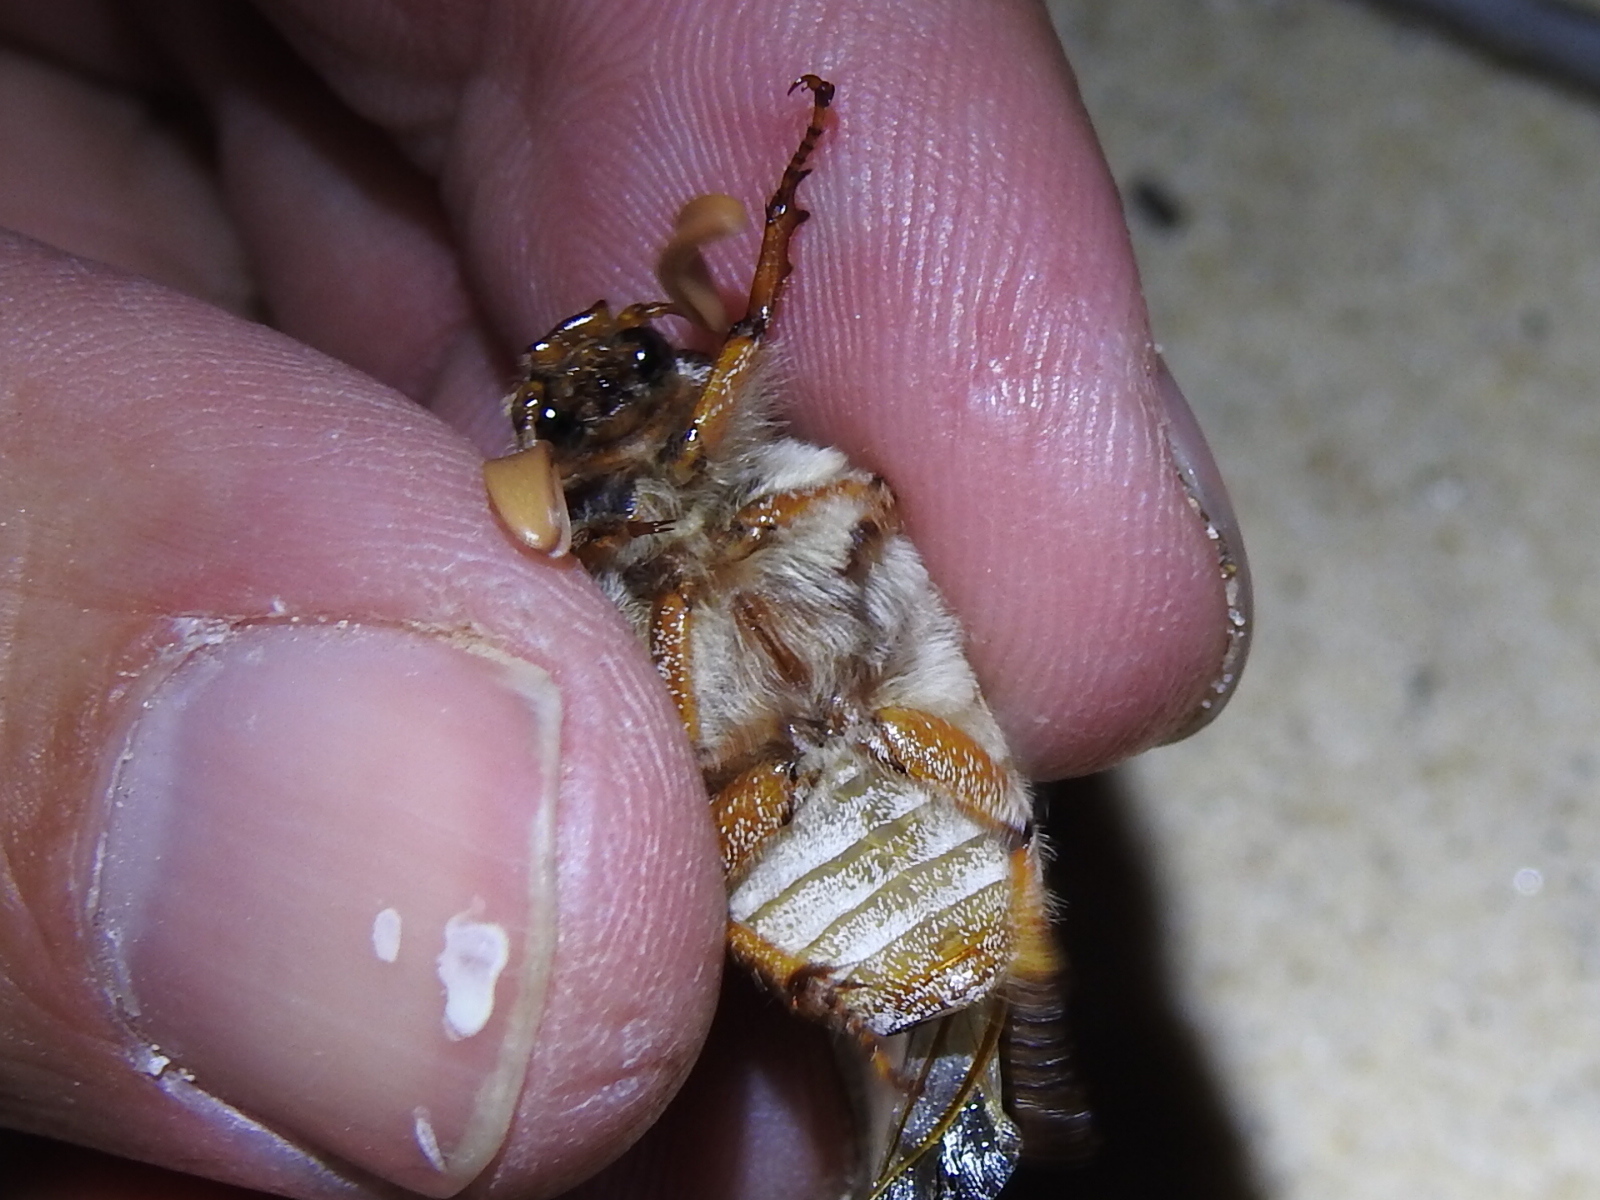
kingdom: Animalia
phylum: Arthropoda
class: Insecta
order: Coleoptera
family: Scarabaeidae
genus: Polyphylla
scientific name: Polyphylla pottsorum
